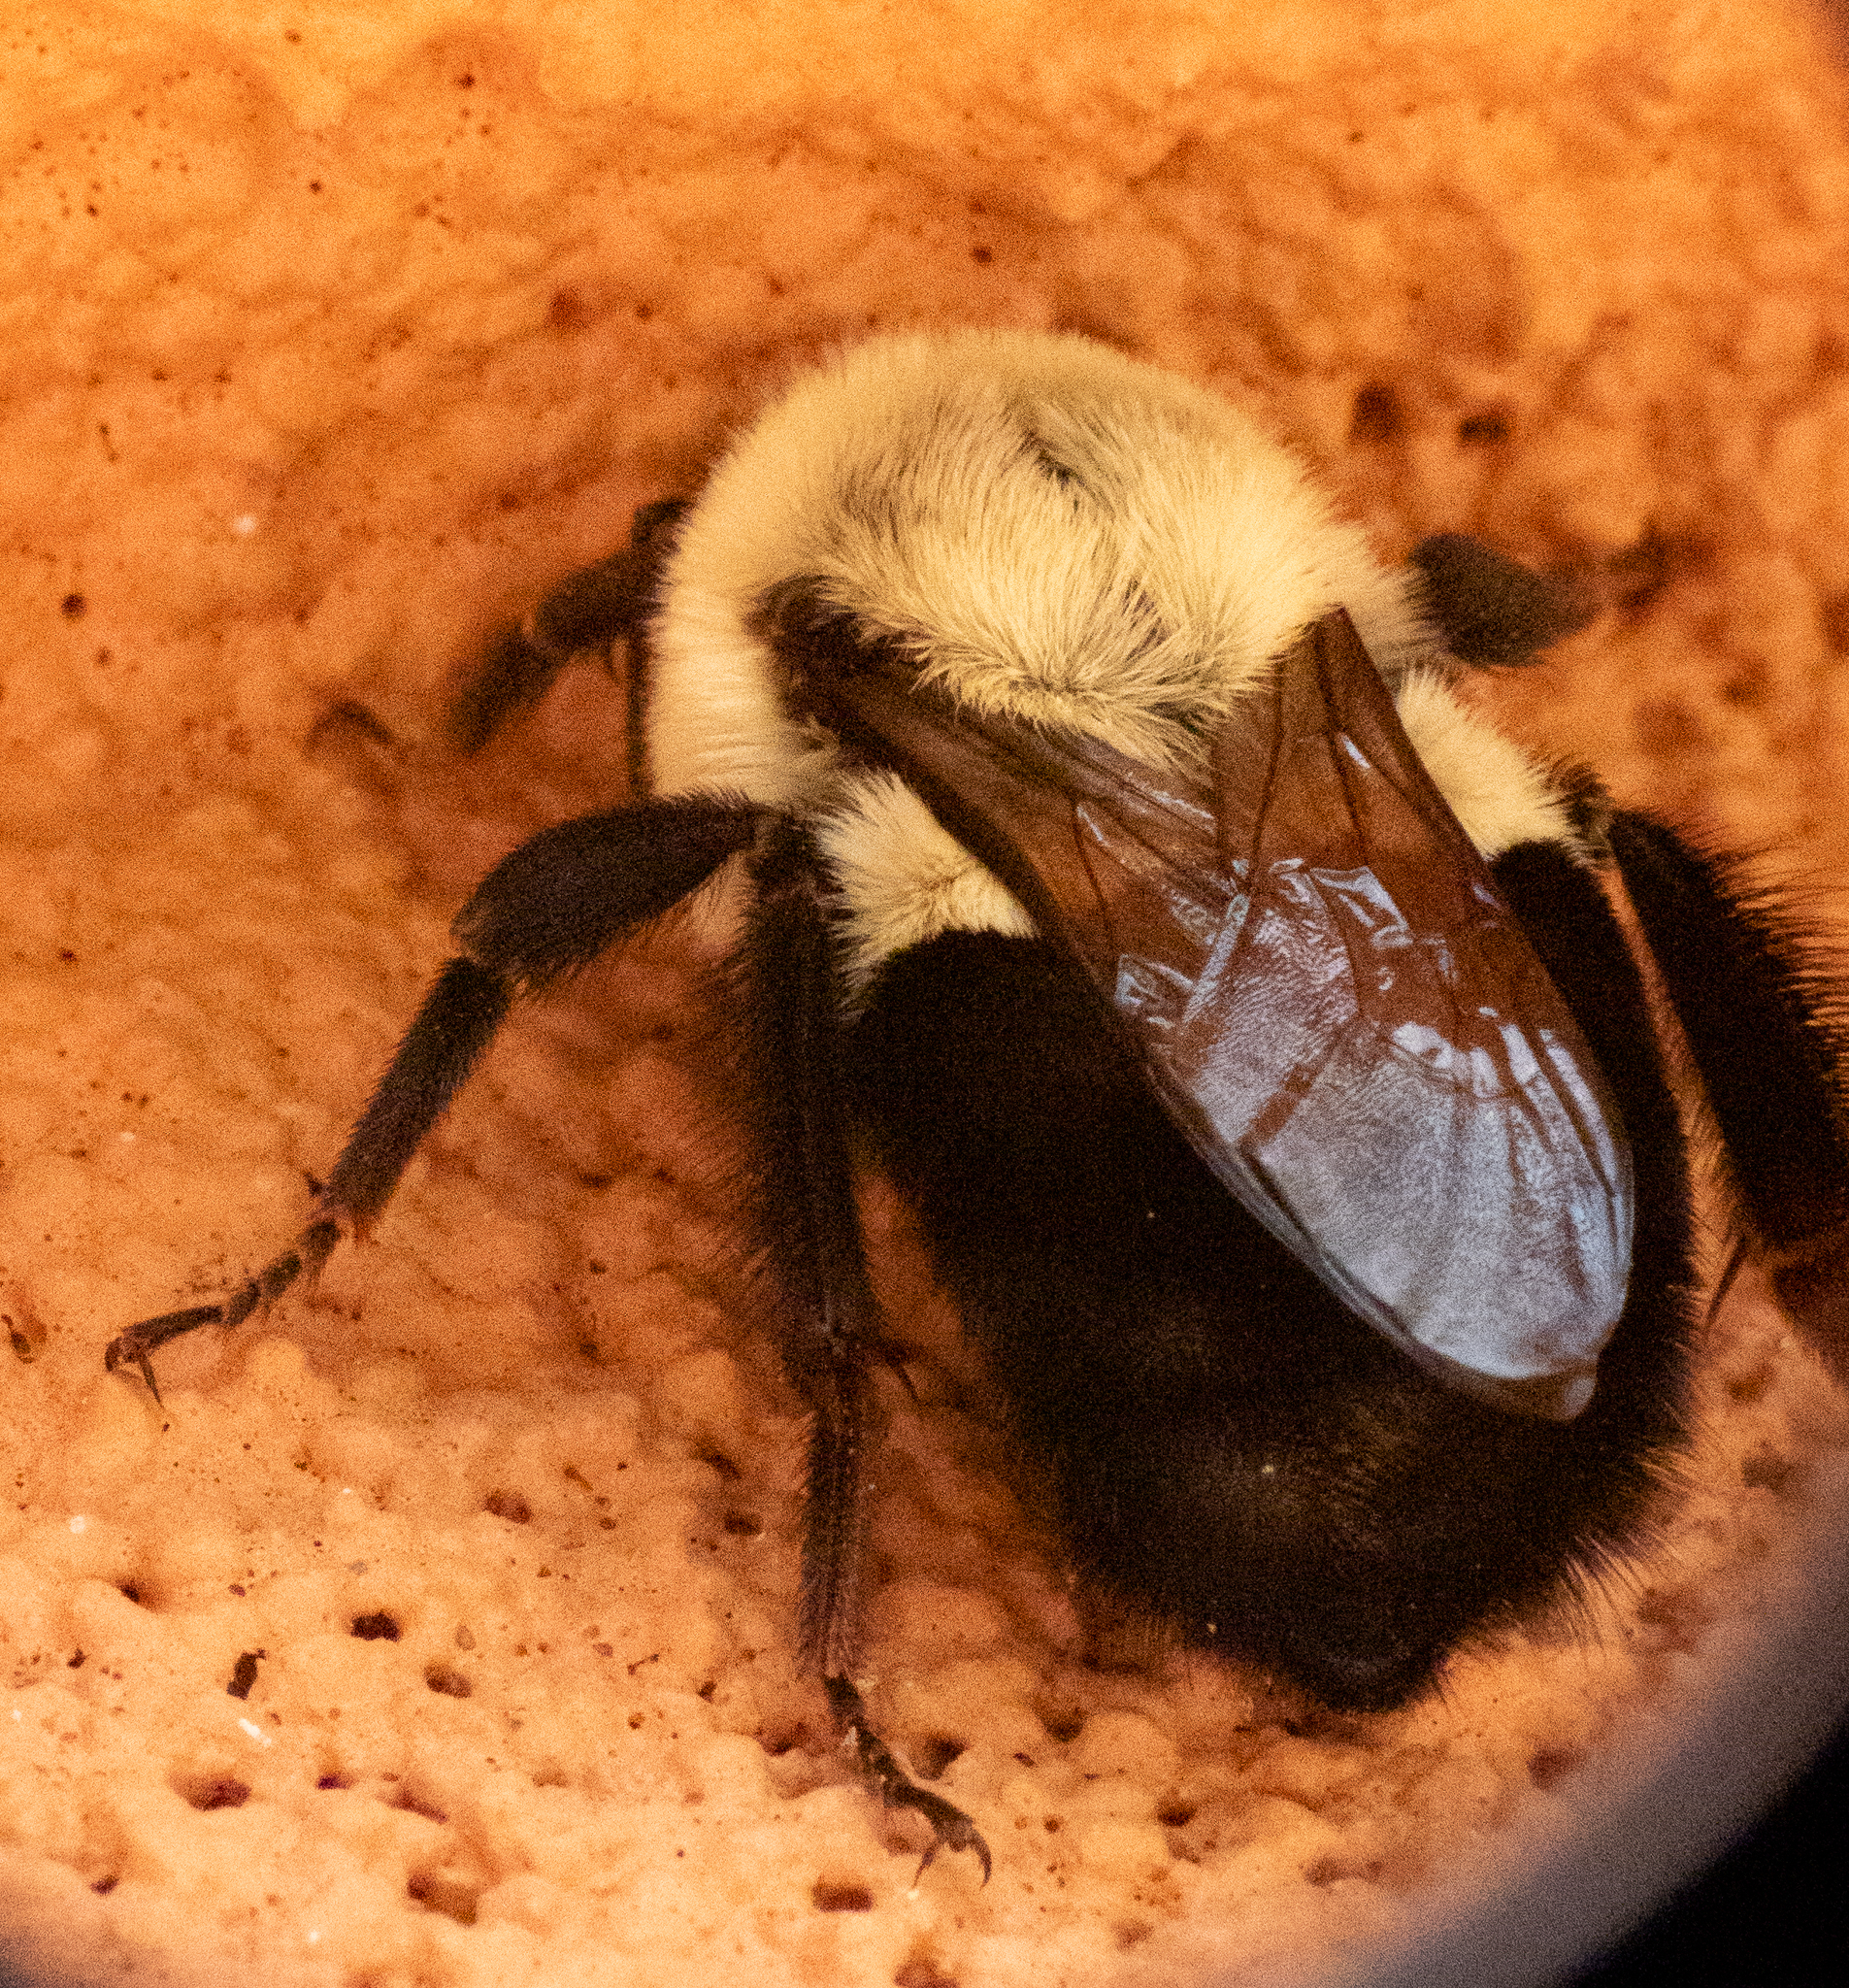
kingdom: Animalia
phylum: Arthropoda
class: Insecta
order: Hymenoptera
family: Apidae
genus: Bombus
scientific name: Bombus impatiens
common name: Common eastern bumble bee
